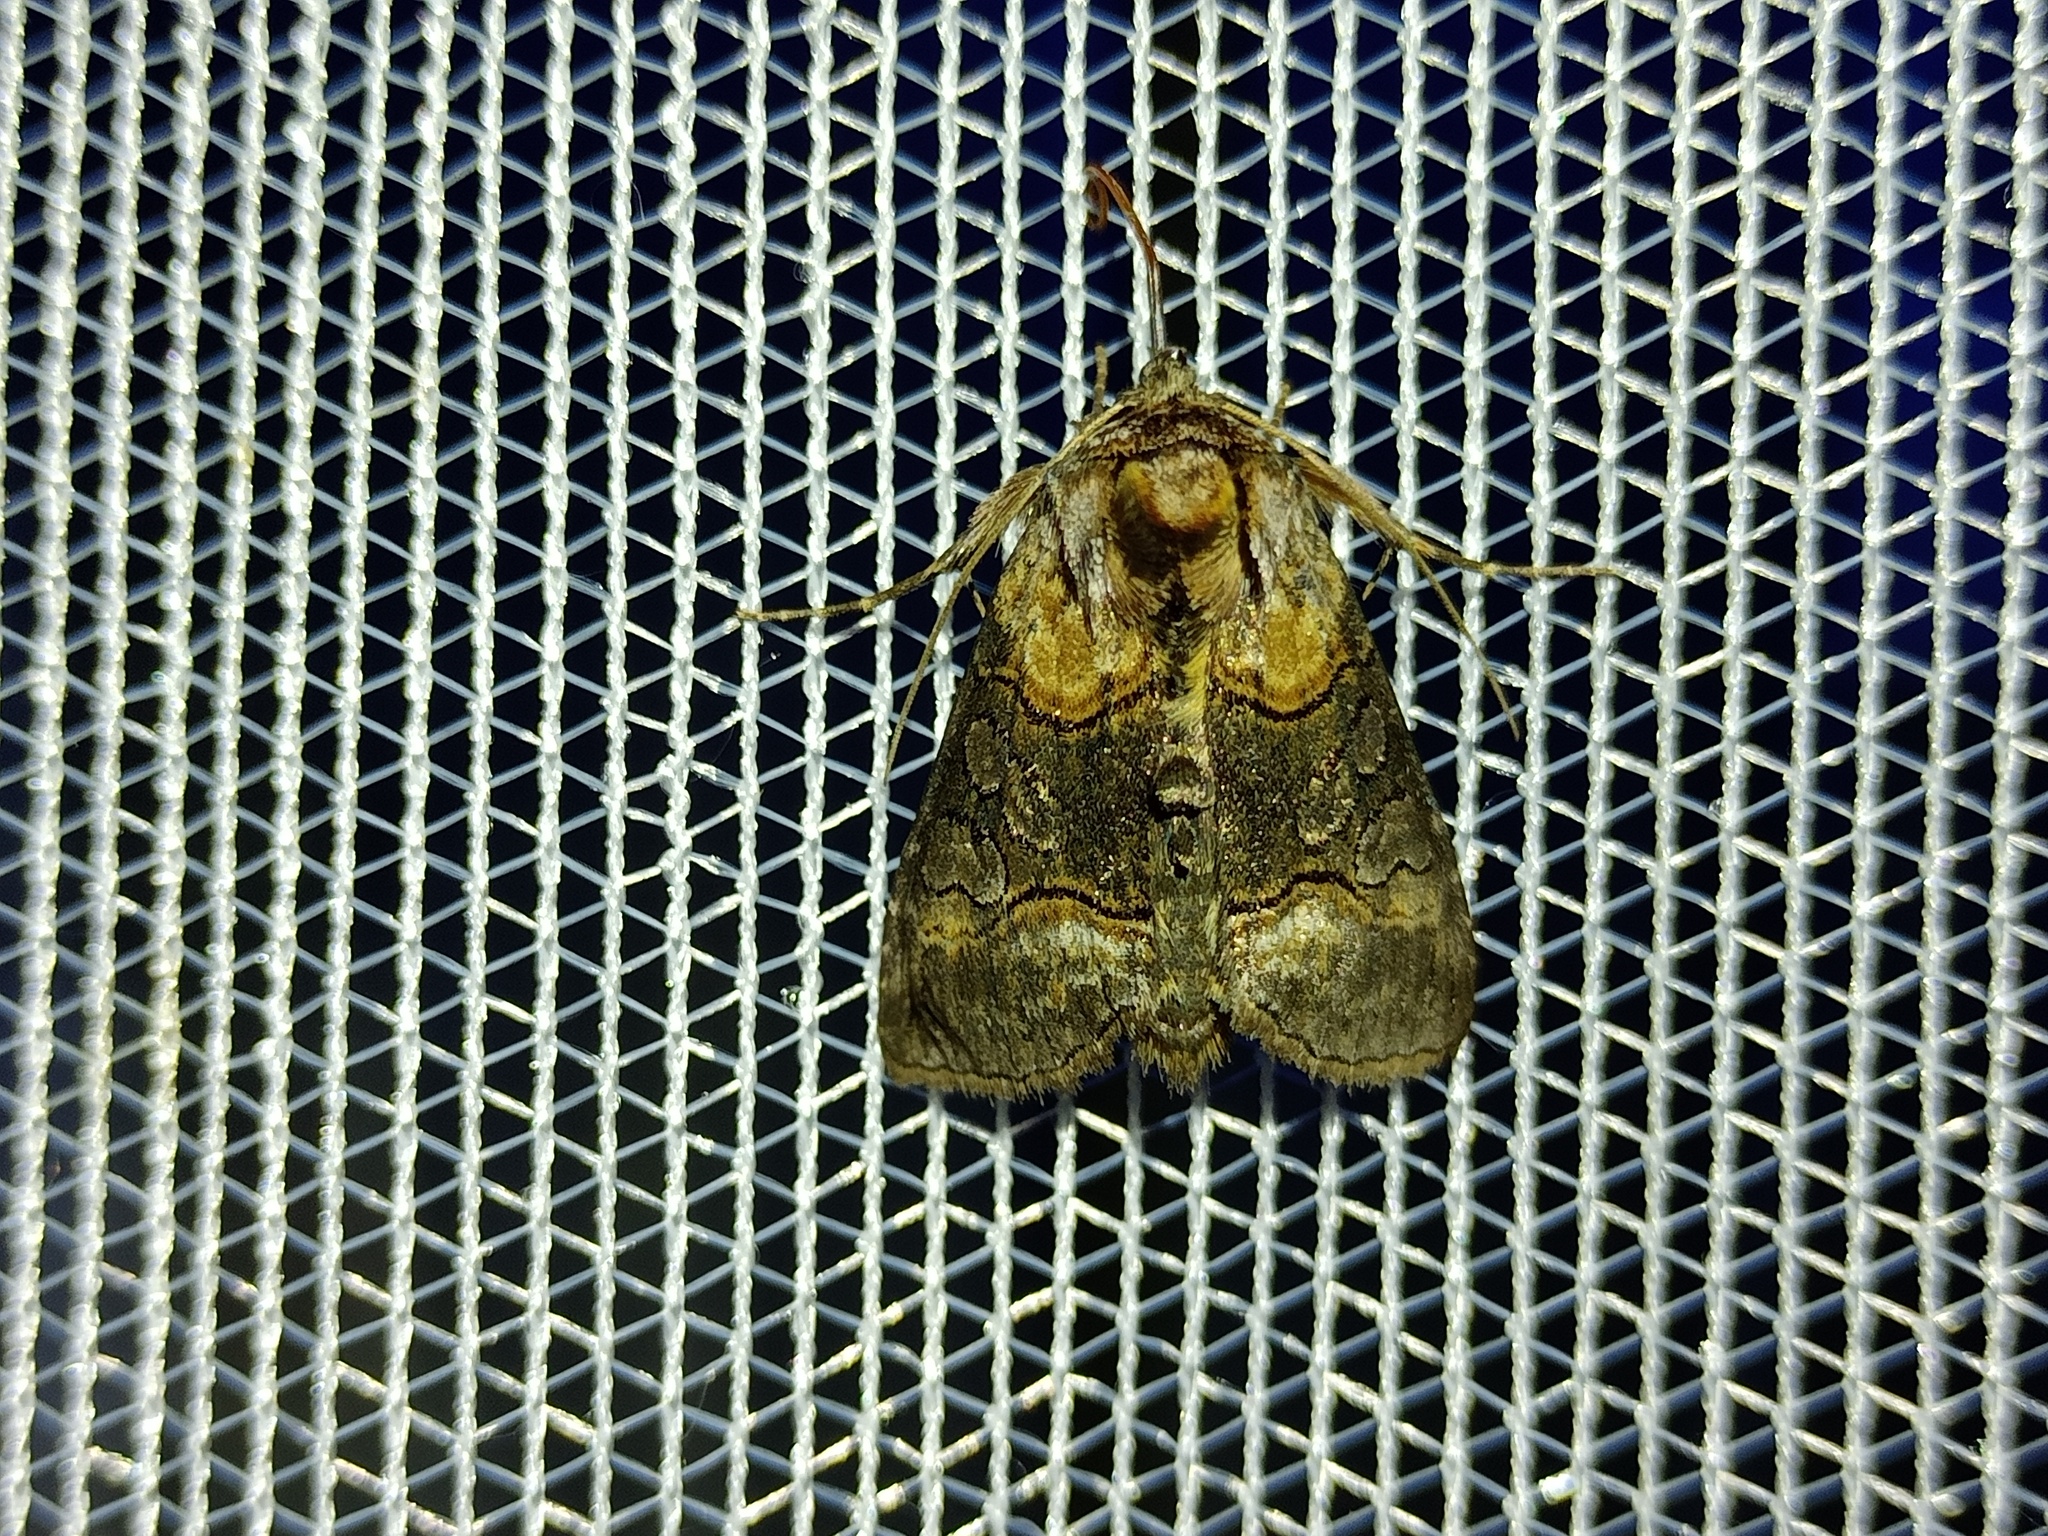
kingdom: Animalia
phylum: Arthropoda
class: Insecta
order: Lepidoptera
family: Noctuidae
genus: Abrostola
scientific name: Abrostola asclepiadis
